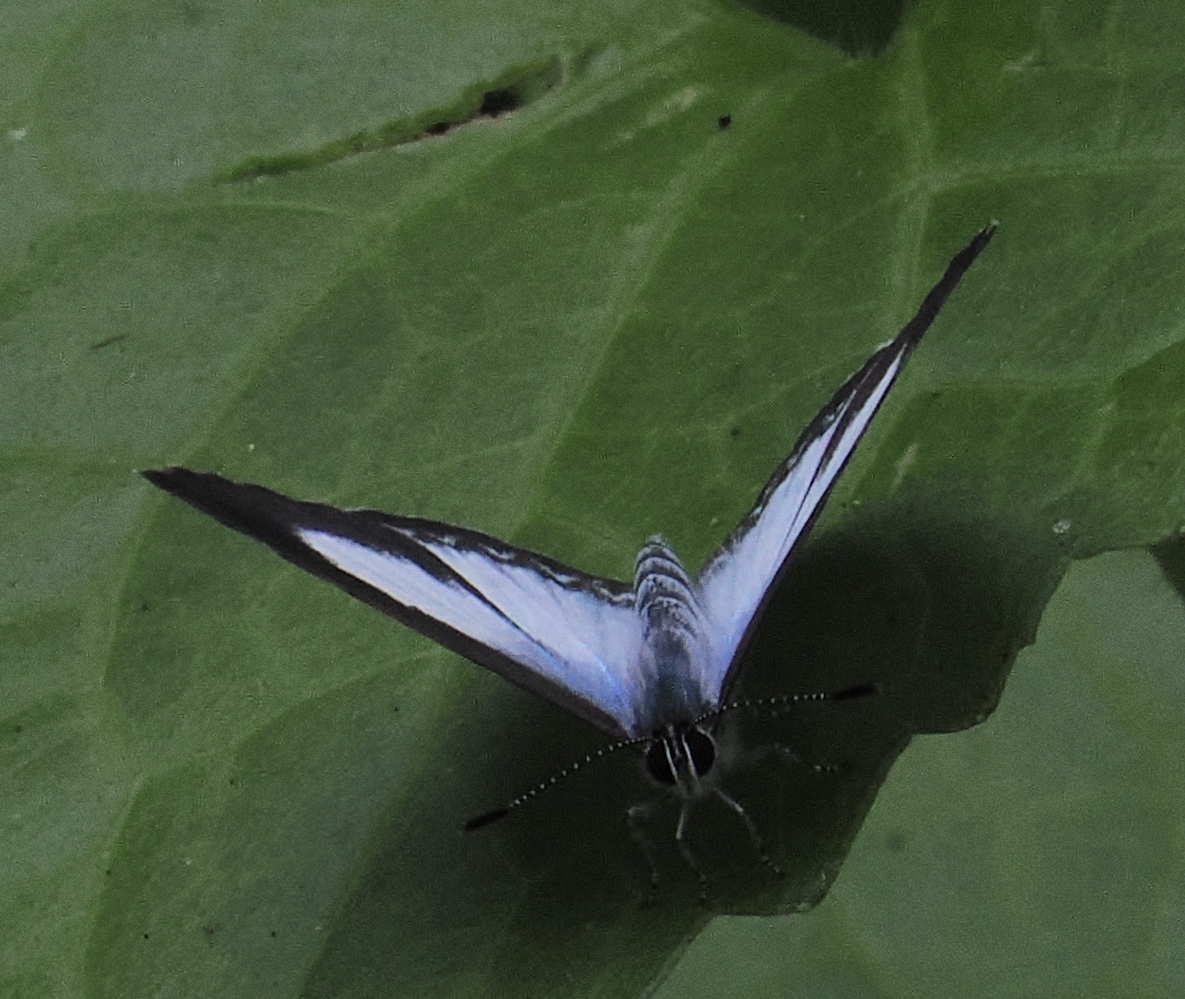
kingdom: Animalia
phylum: Arthropoda
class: Insecta
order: Lepidoptera
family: Lycaenidae
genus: Acytolepis
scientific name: Acytolepis puspa
